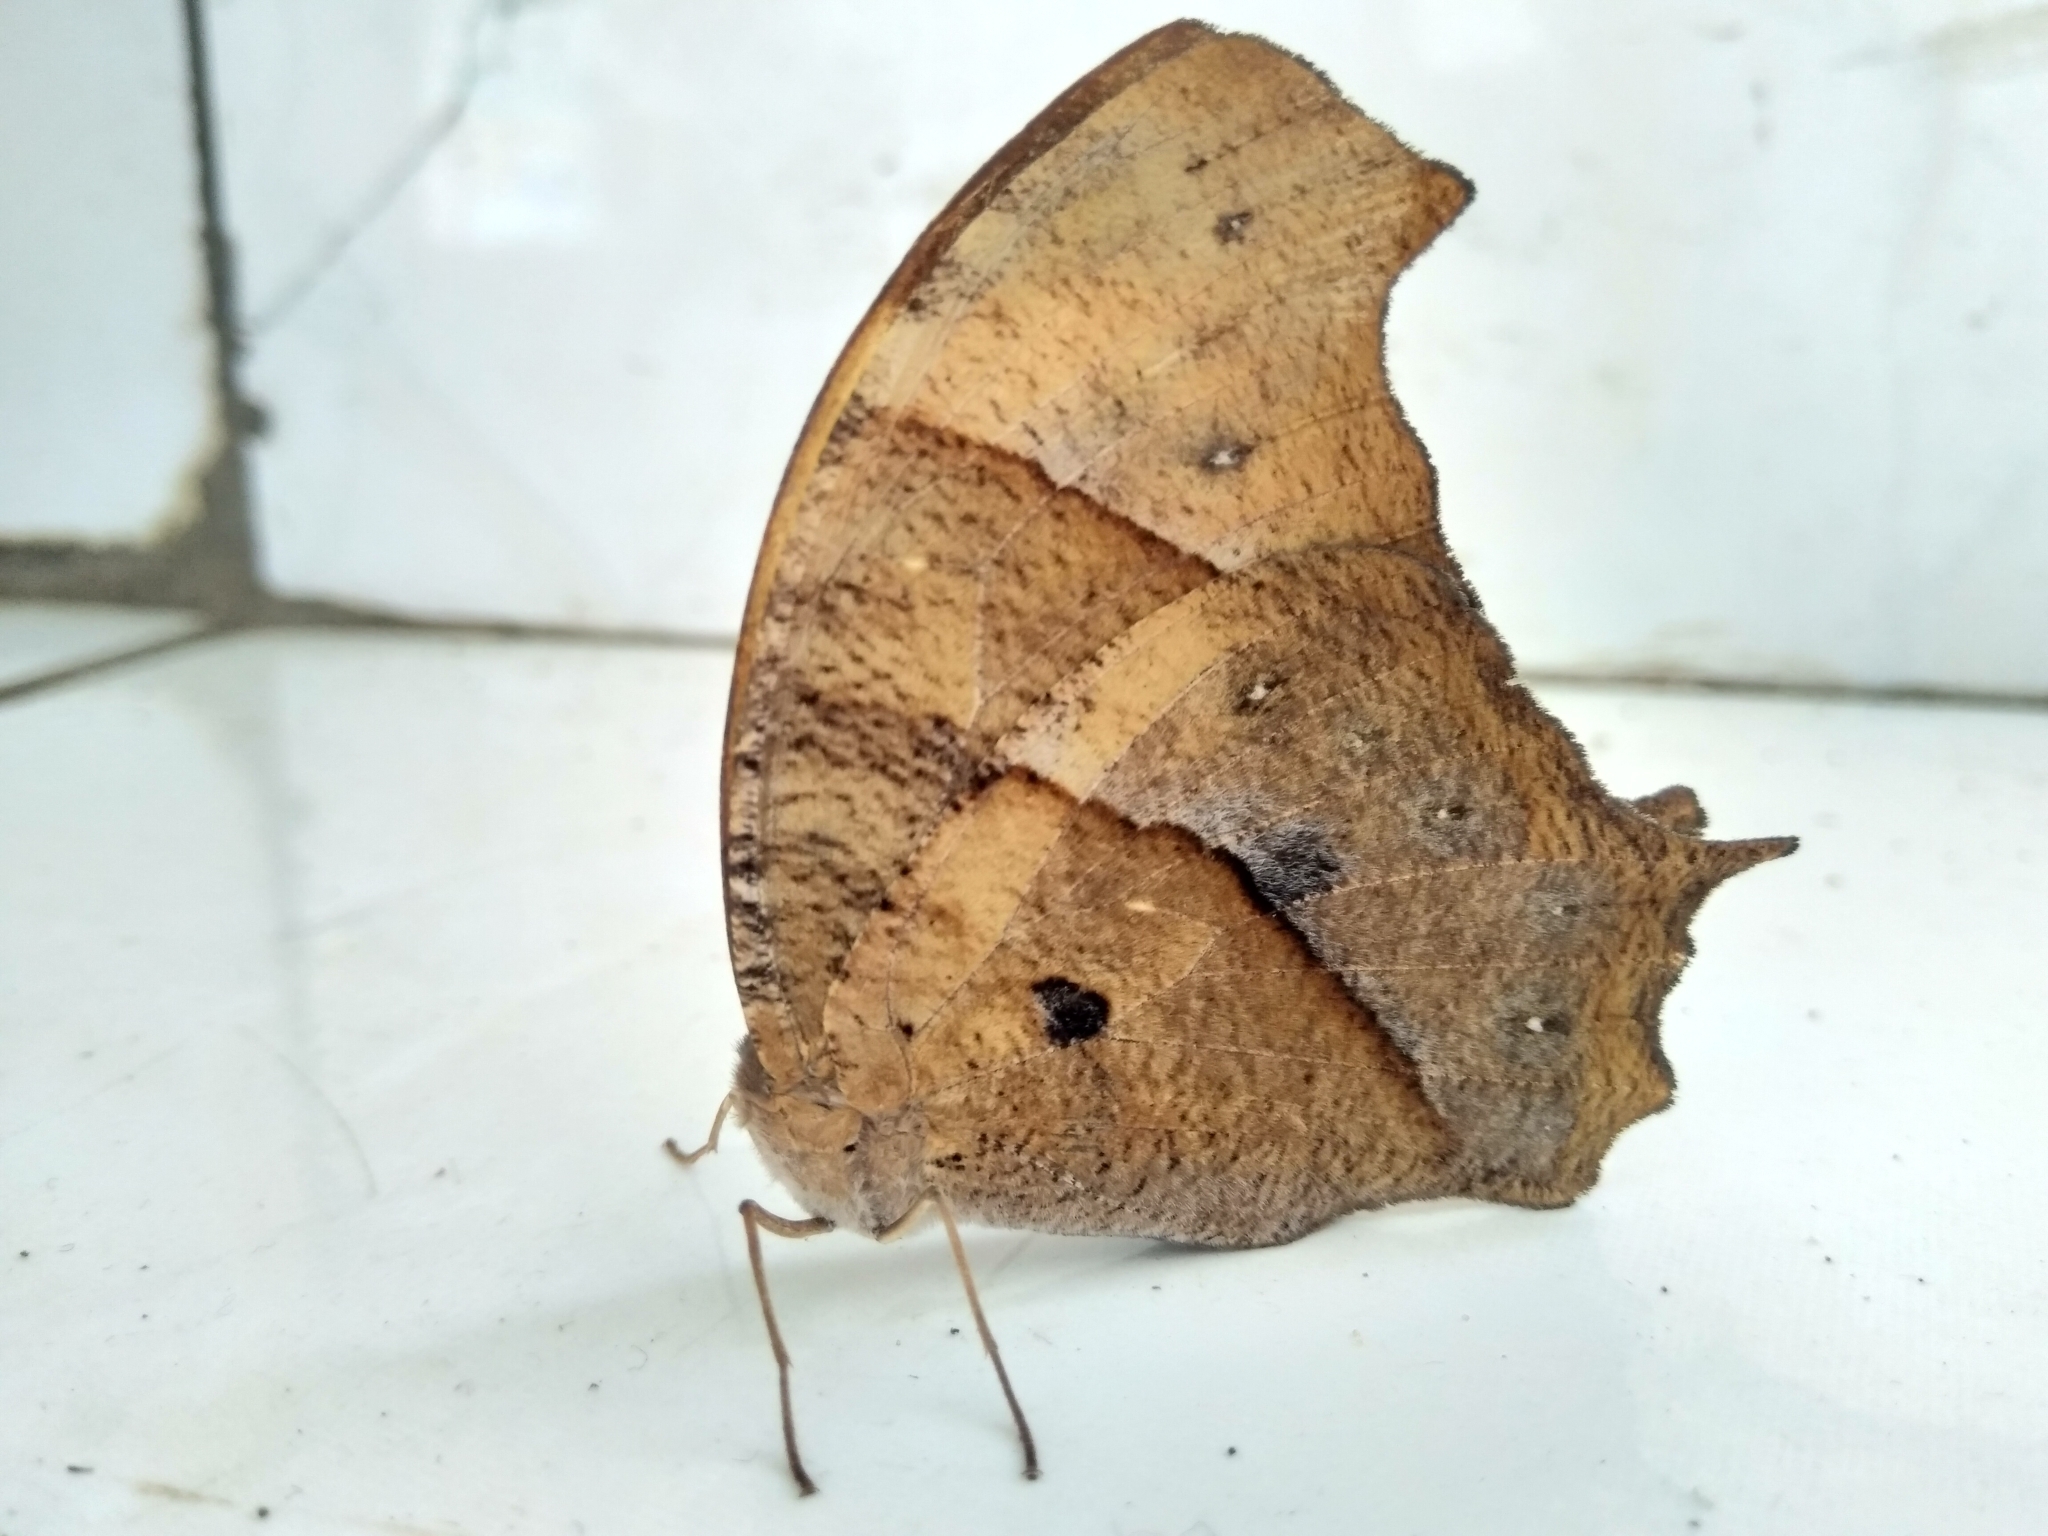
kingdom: Animalia
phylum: Arthropoda
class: Insecta
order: Lepidoptera
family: Nymphalidae
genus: Melanitis
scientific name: Melanitis leda
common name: Twilight brown
